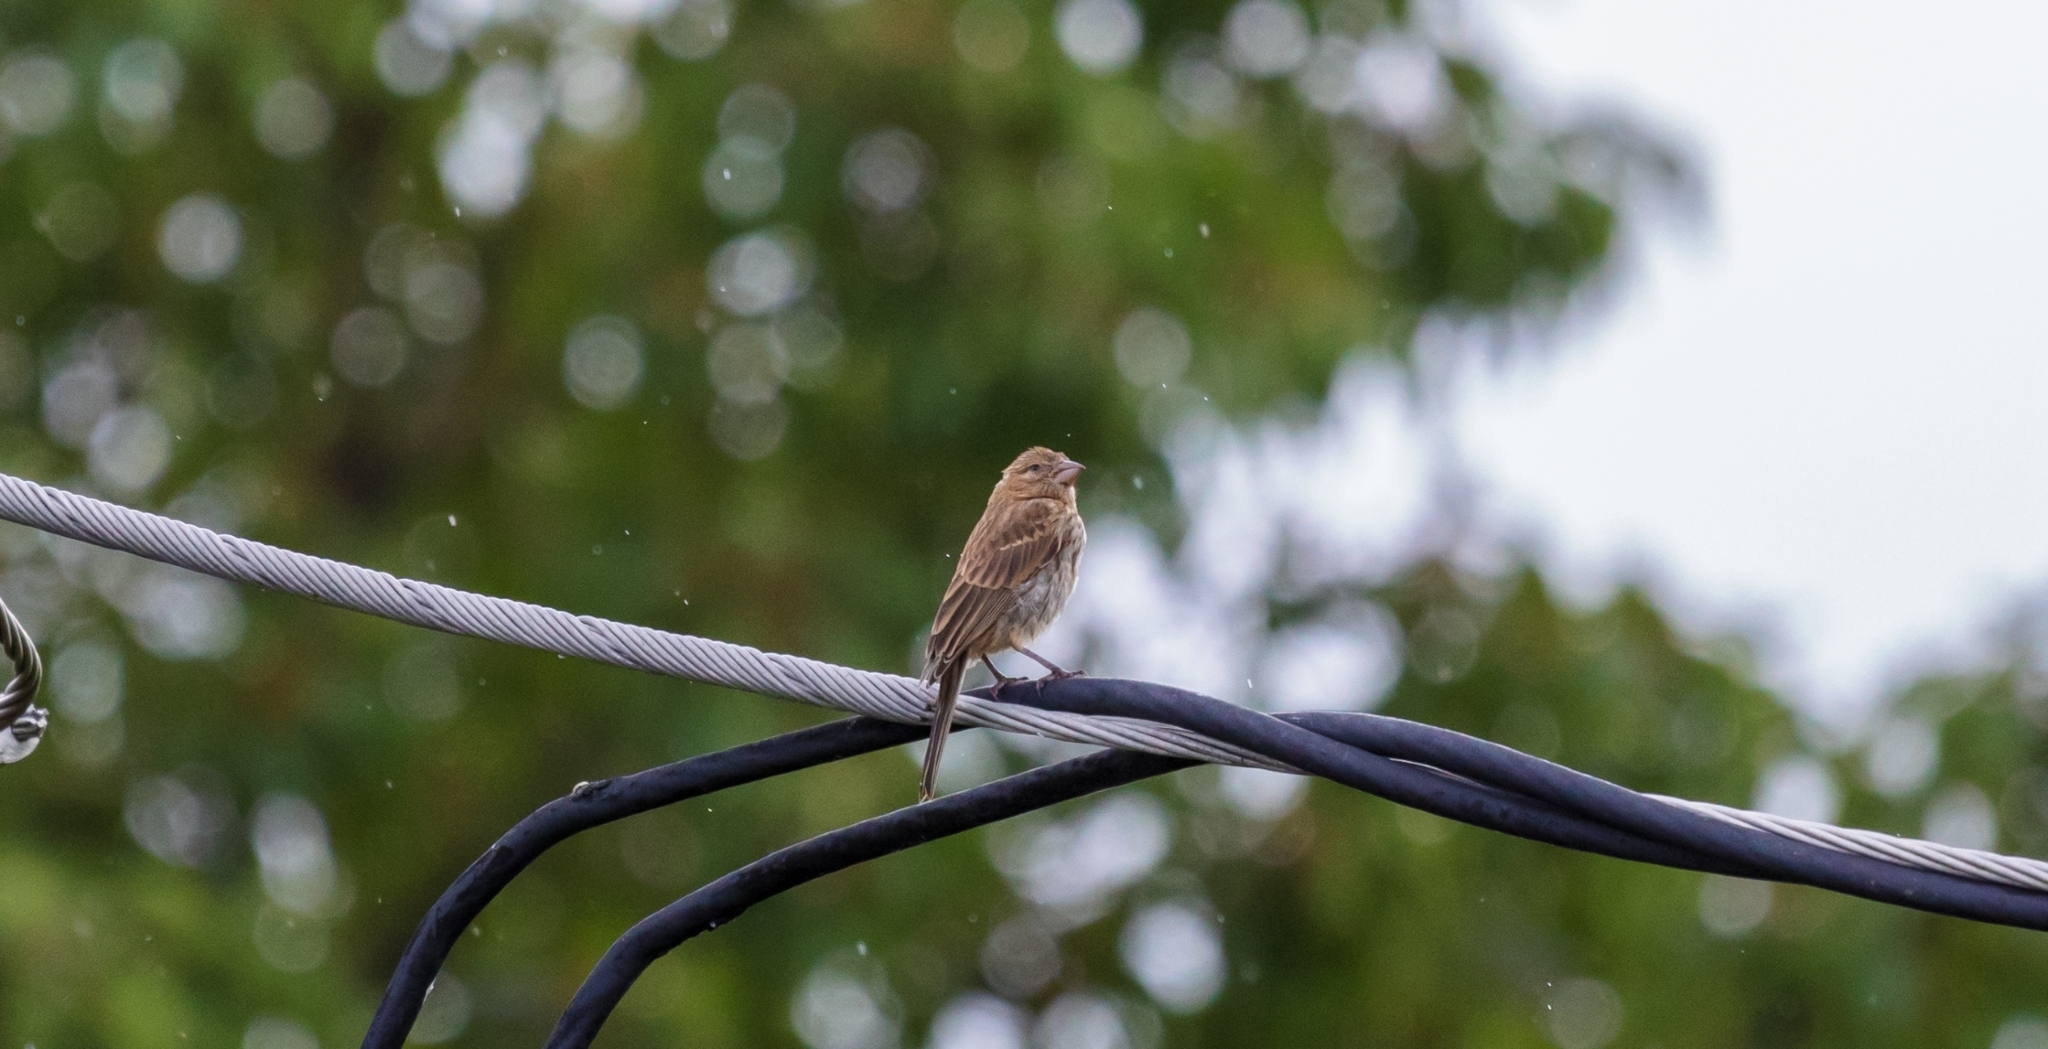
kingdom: Animalia
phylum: Chordata
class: Aves
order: Passeriformes
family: Fringillidae
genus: Haemorhous
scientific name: Haemorhous mexicanus
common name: House finch
